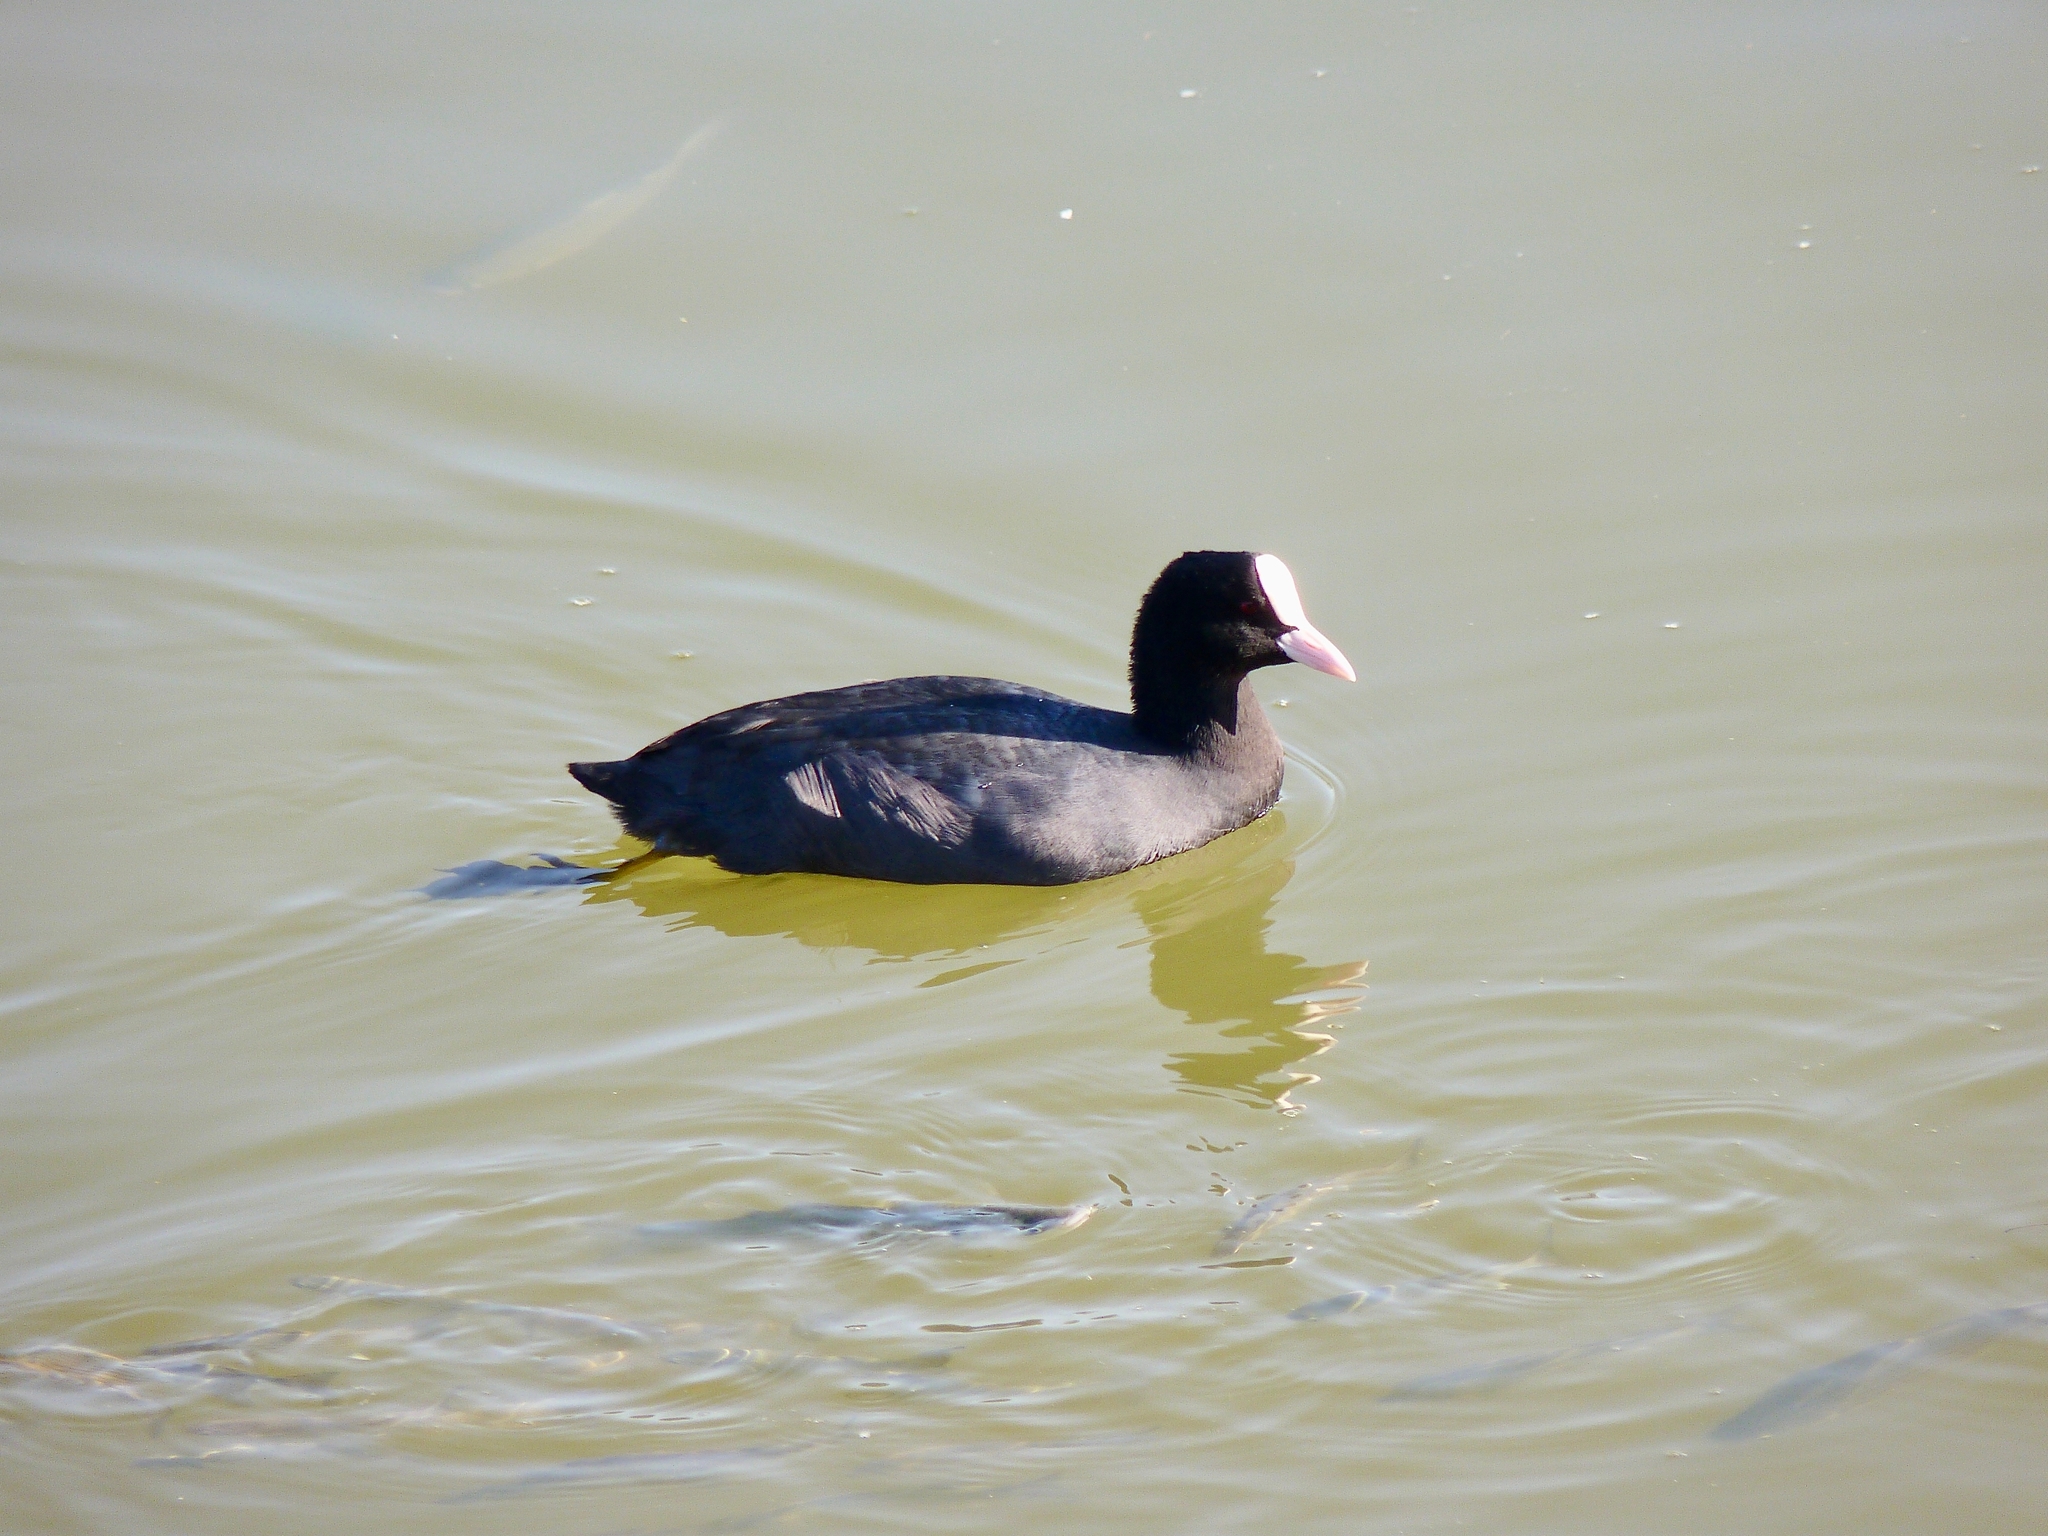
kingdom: Animalia
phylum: Chordata
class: Aves
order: Gruiformes
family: Rallidae
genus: Fulica
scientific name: Fulica atra
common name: Eurasian coot
